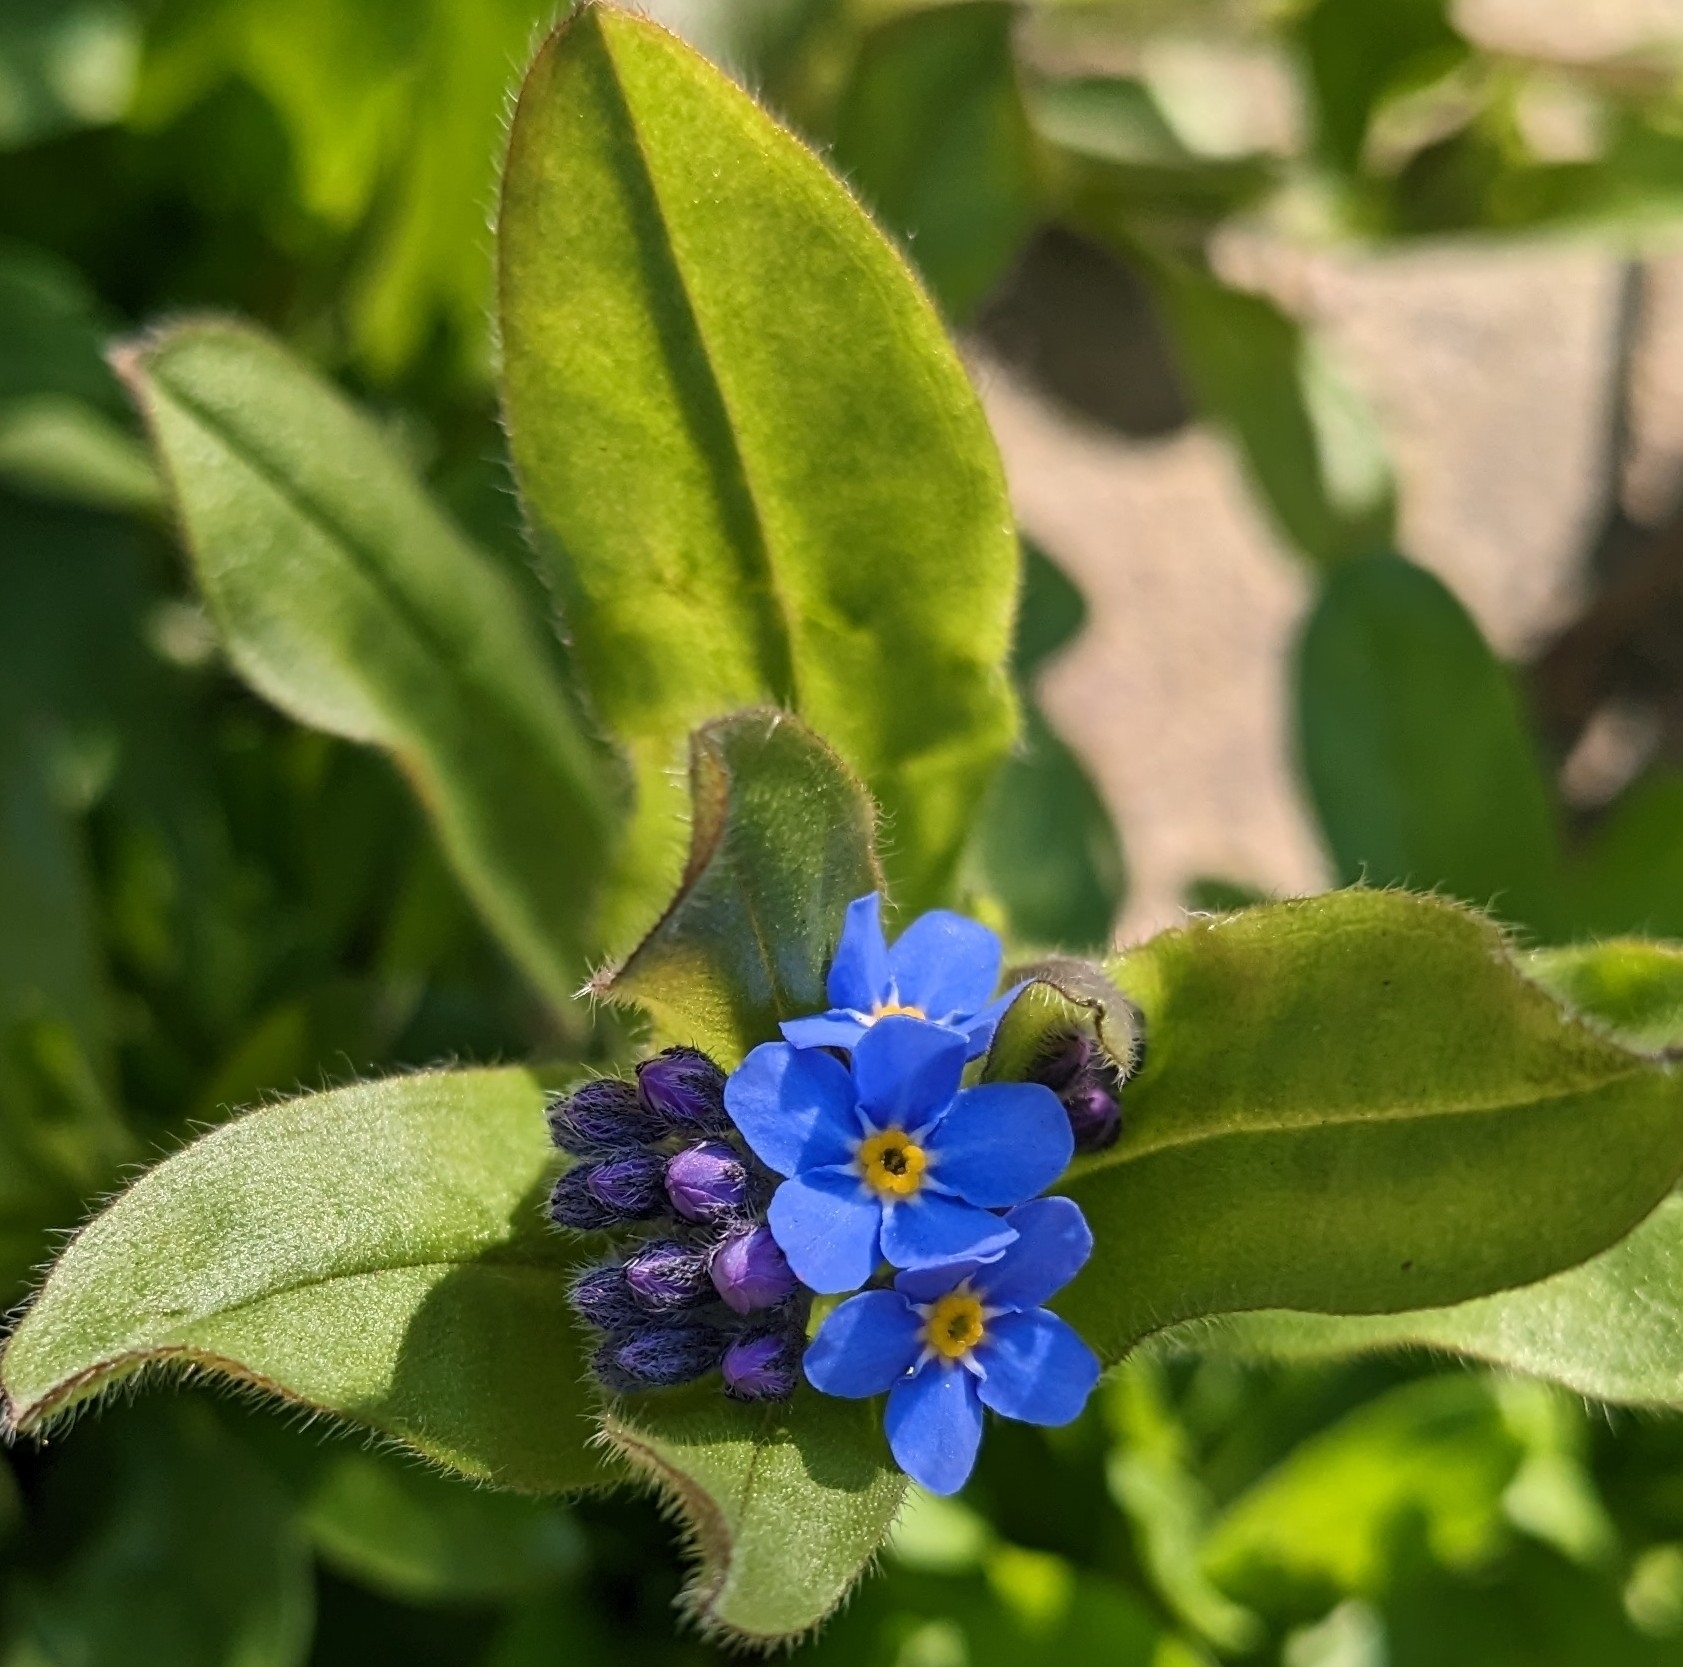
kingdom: Plantae
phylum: Tracheophyta
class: Magnoliopsida
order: Boraginales
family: Boraginaceae
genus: Myosotis
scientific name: Myosotis sylvatica
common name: Wood forget-me-not
